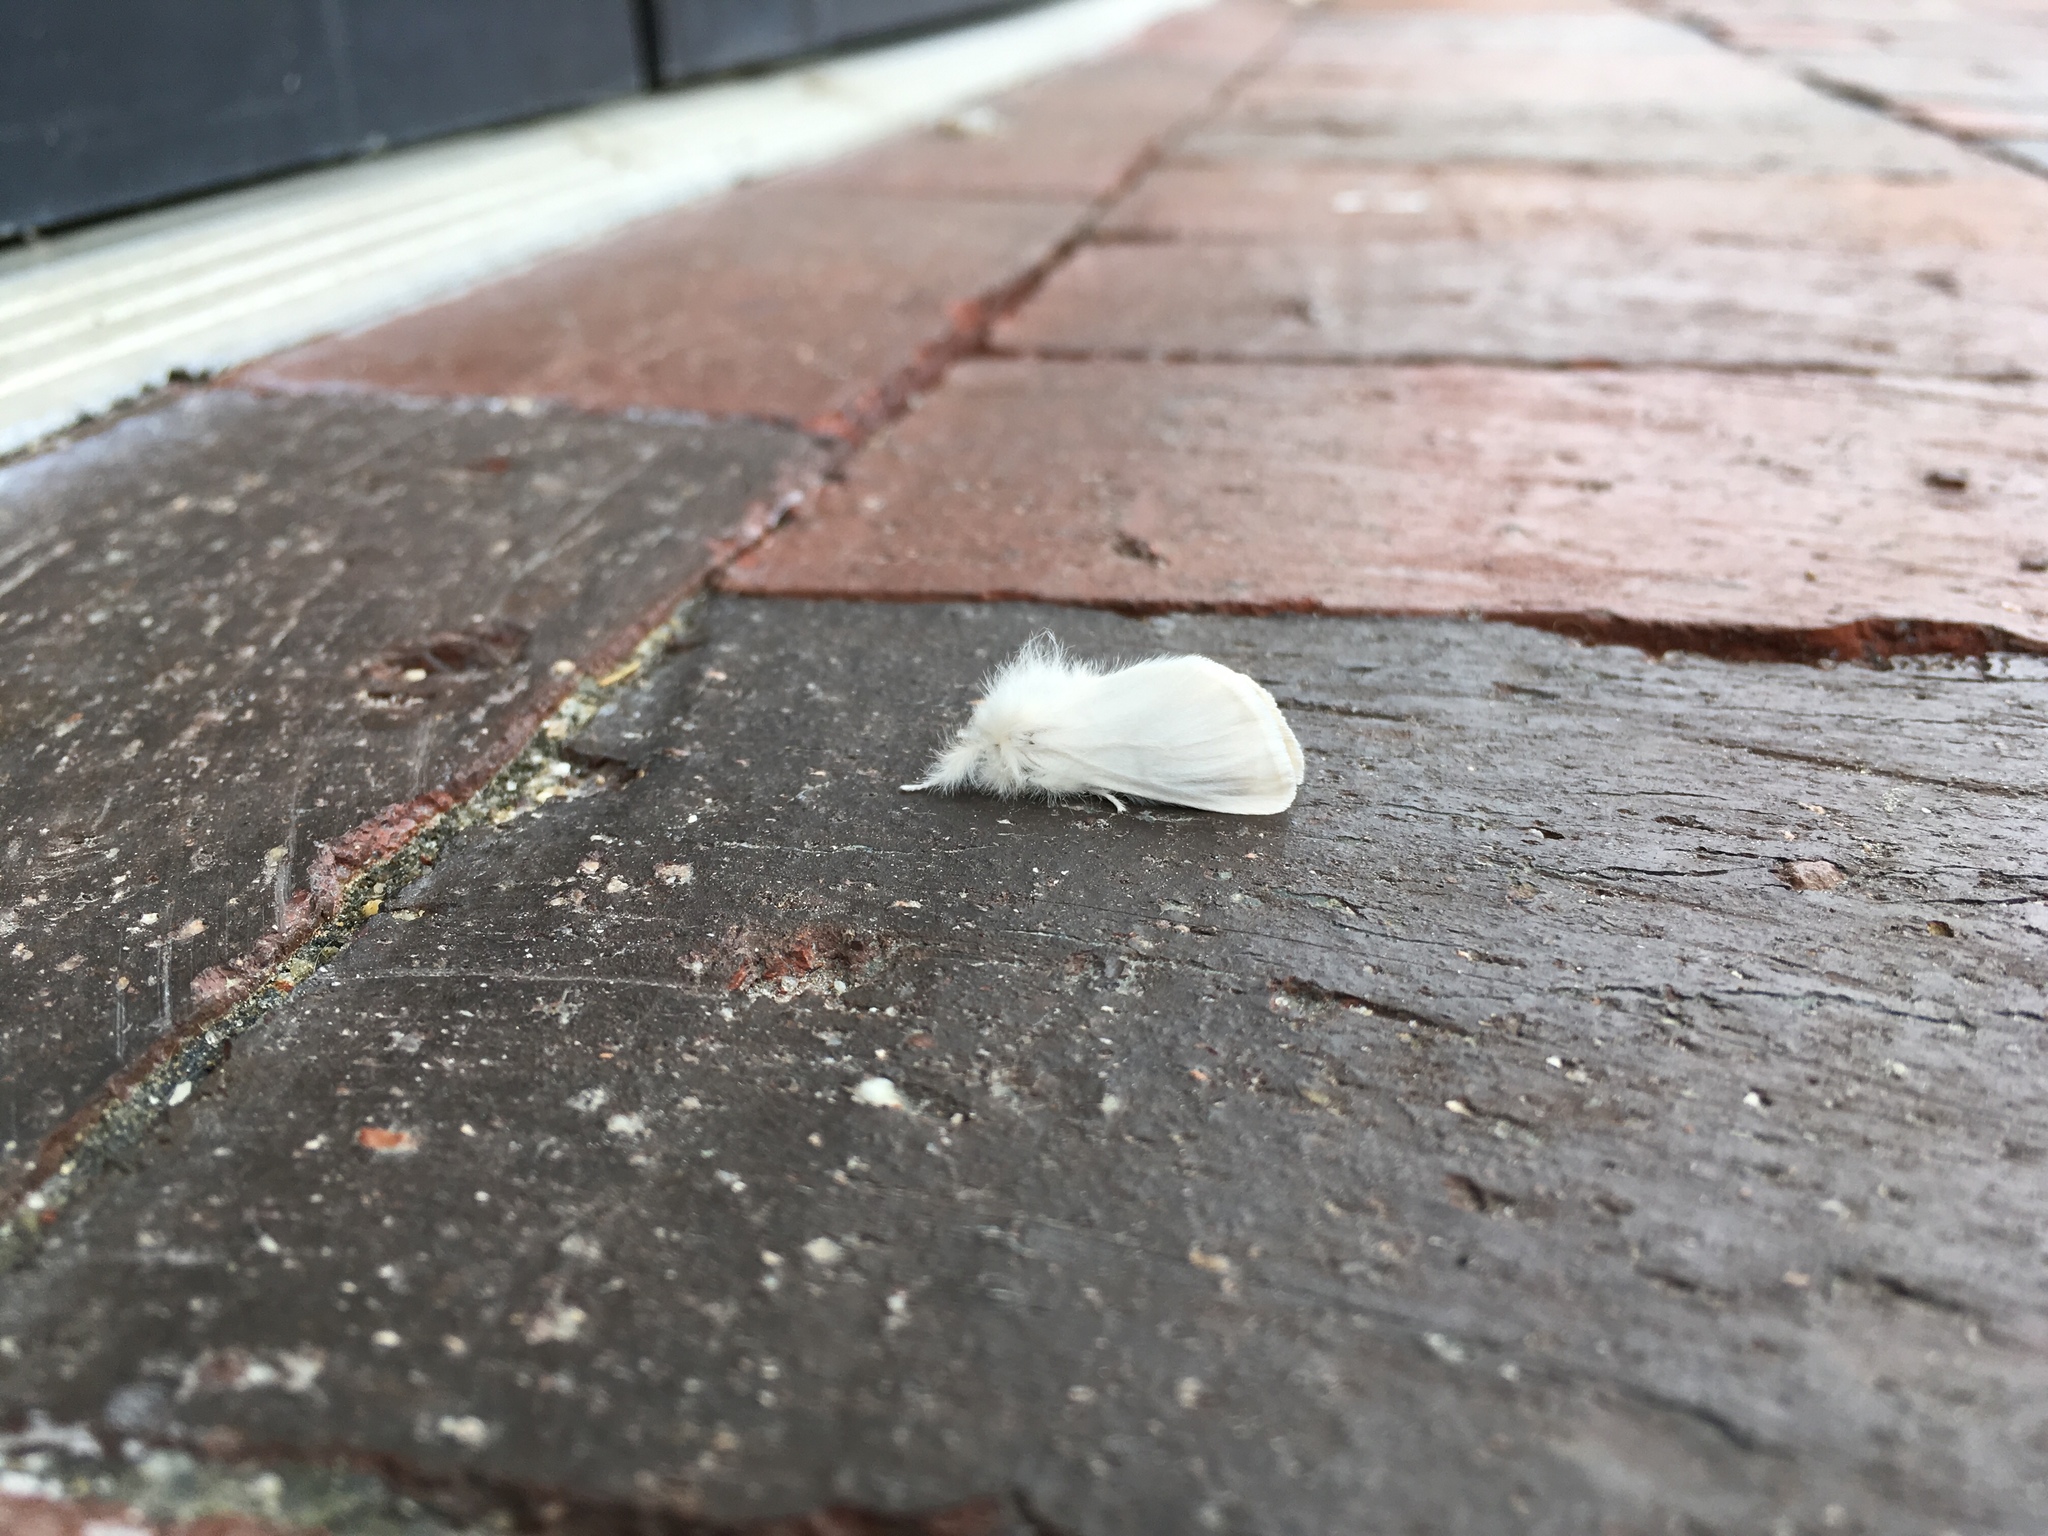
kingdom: Animalia
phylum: Arthropoda
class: Insecta
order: Lepidoptera
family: Erebidae
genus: Euproctis
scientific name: Euproctis chrysorrhoea
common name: Brown-tail
